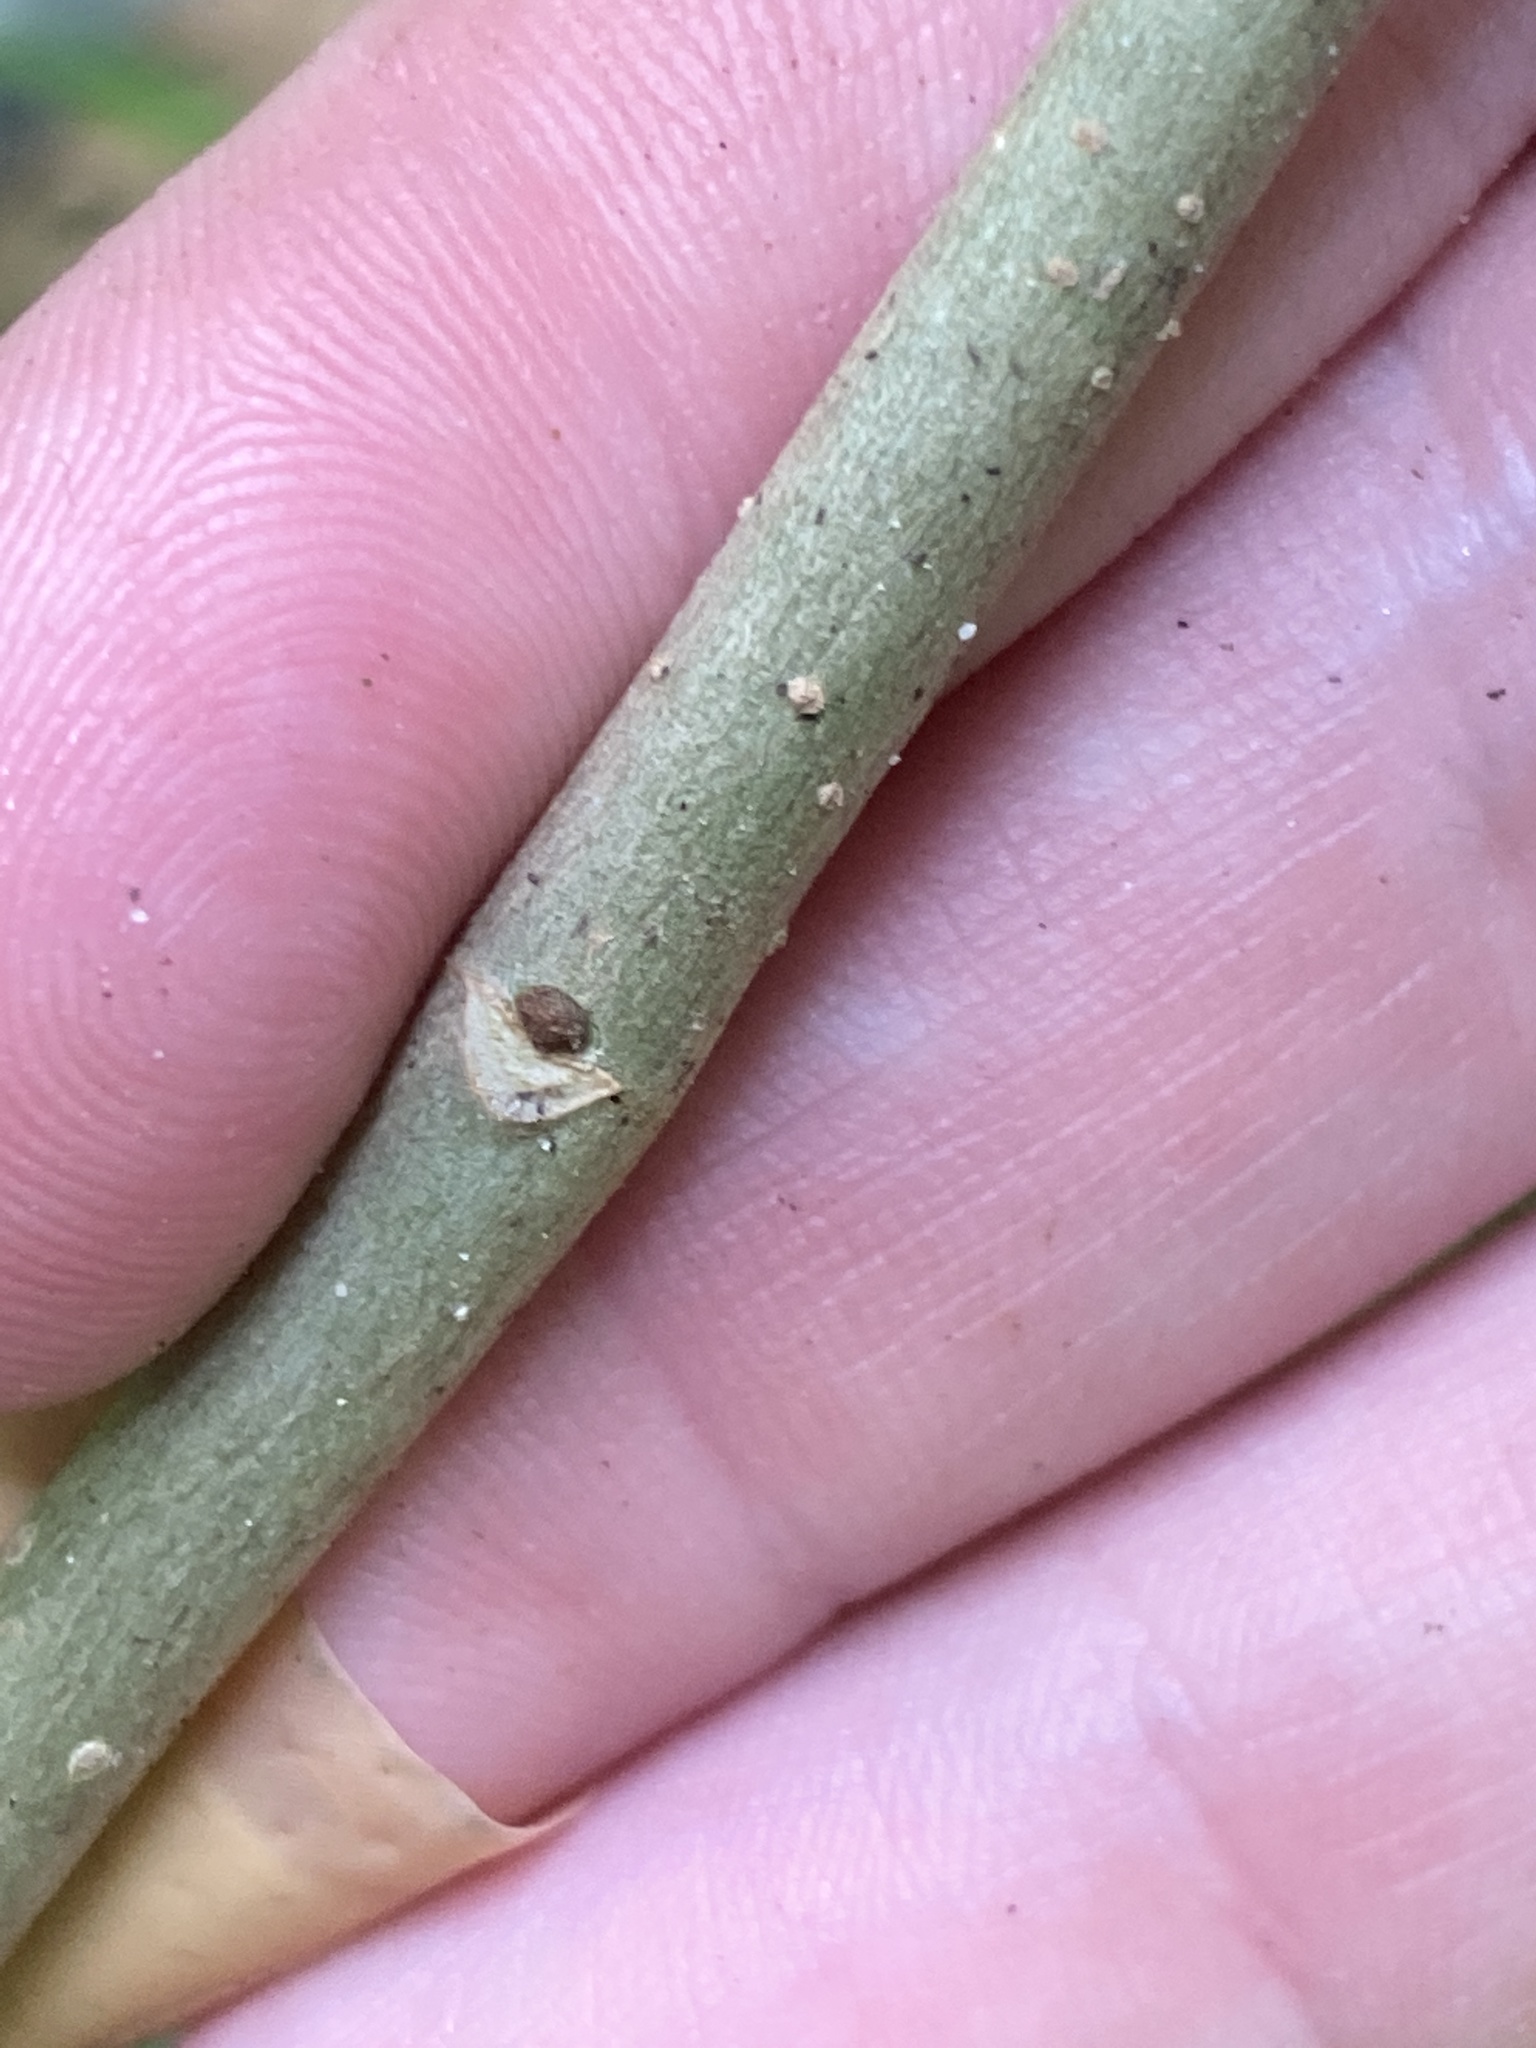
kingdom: Plantae
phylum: Tracheophyta
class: Magnoliopsida
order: Lamiales
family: Oleaceae
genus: Fraxinus
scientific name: Fraxinus pennsylvanica
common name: Green ash
